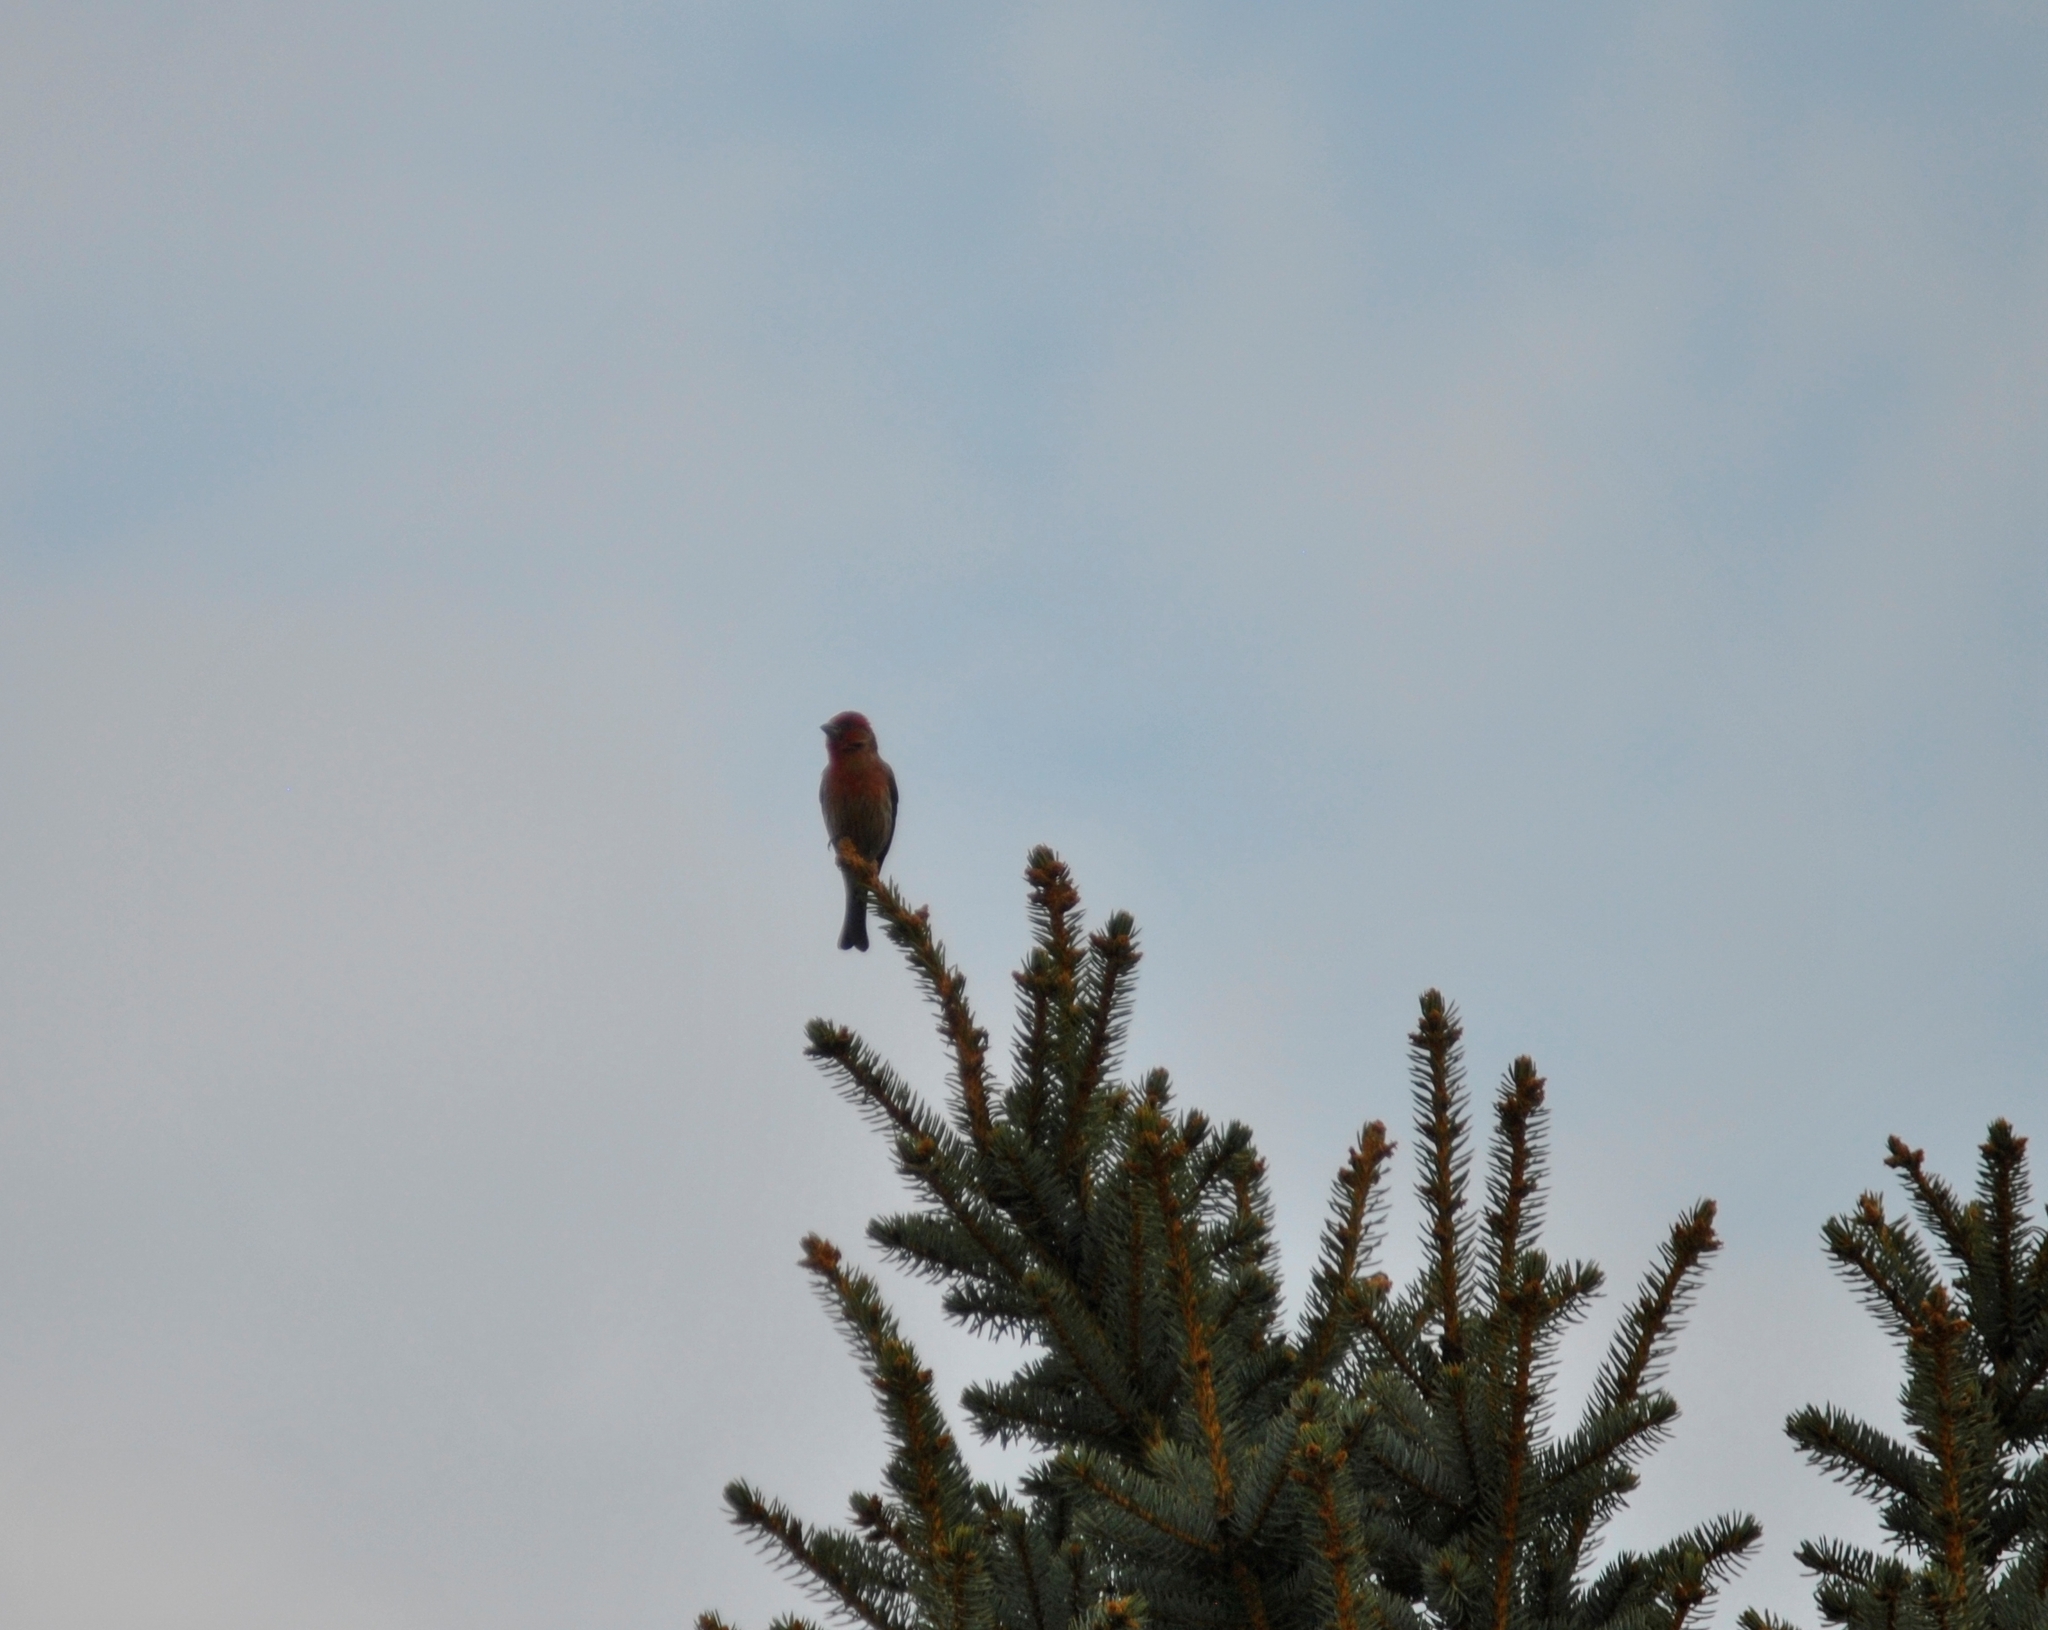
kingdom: Animalia
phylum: Chordata
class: Aves
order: Passeriformes
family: Fringillidae
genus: Haemorhous
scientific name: Haemorhous mexicanus
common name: House finch
